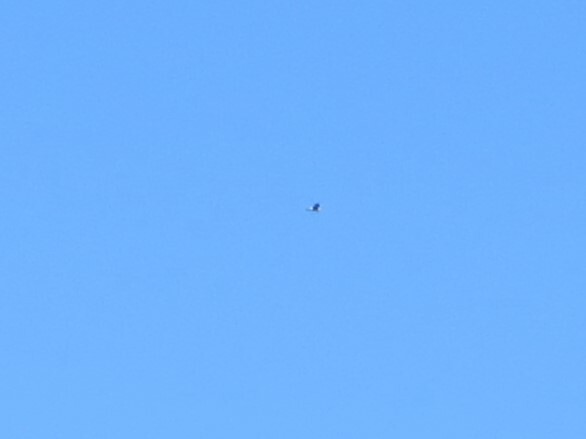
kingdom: Animalia
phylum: Chordata
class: Aves
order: Accipitriformes
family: Accipitridae
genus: Circus
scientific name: Circus cyaneus
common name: Hen harrier
